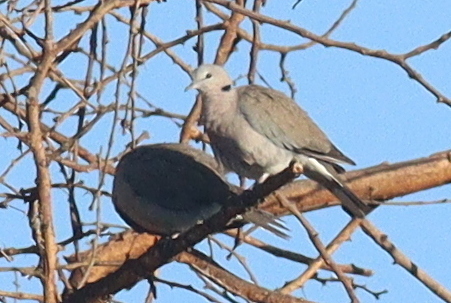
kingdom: Animalia
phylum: Chordata
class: Aves
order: Columbiformes
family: Columbidae
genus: Streptopelia
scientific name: Streptopelia capicola
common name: Ring-necked dove
